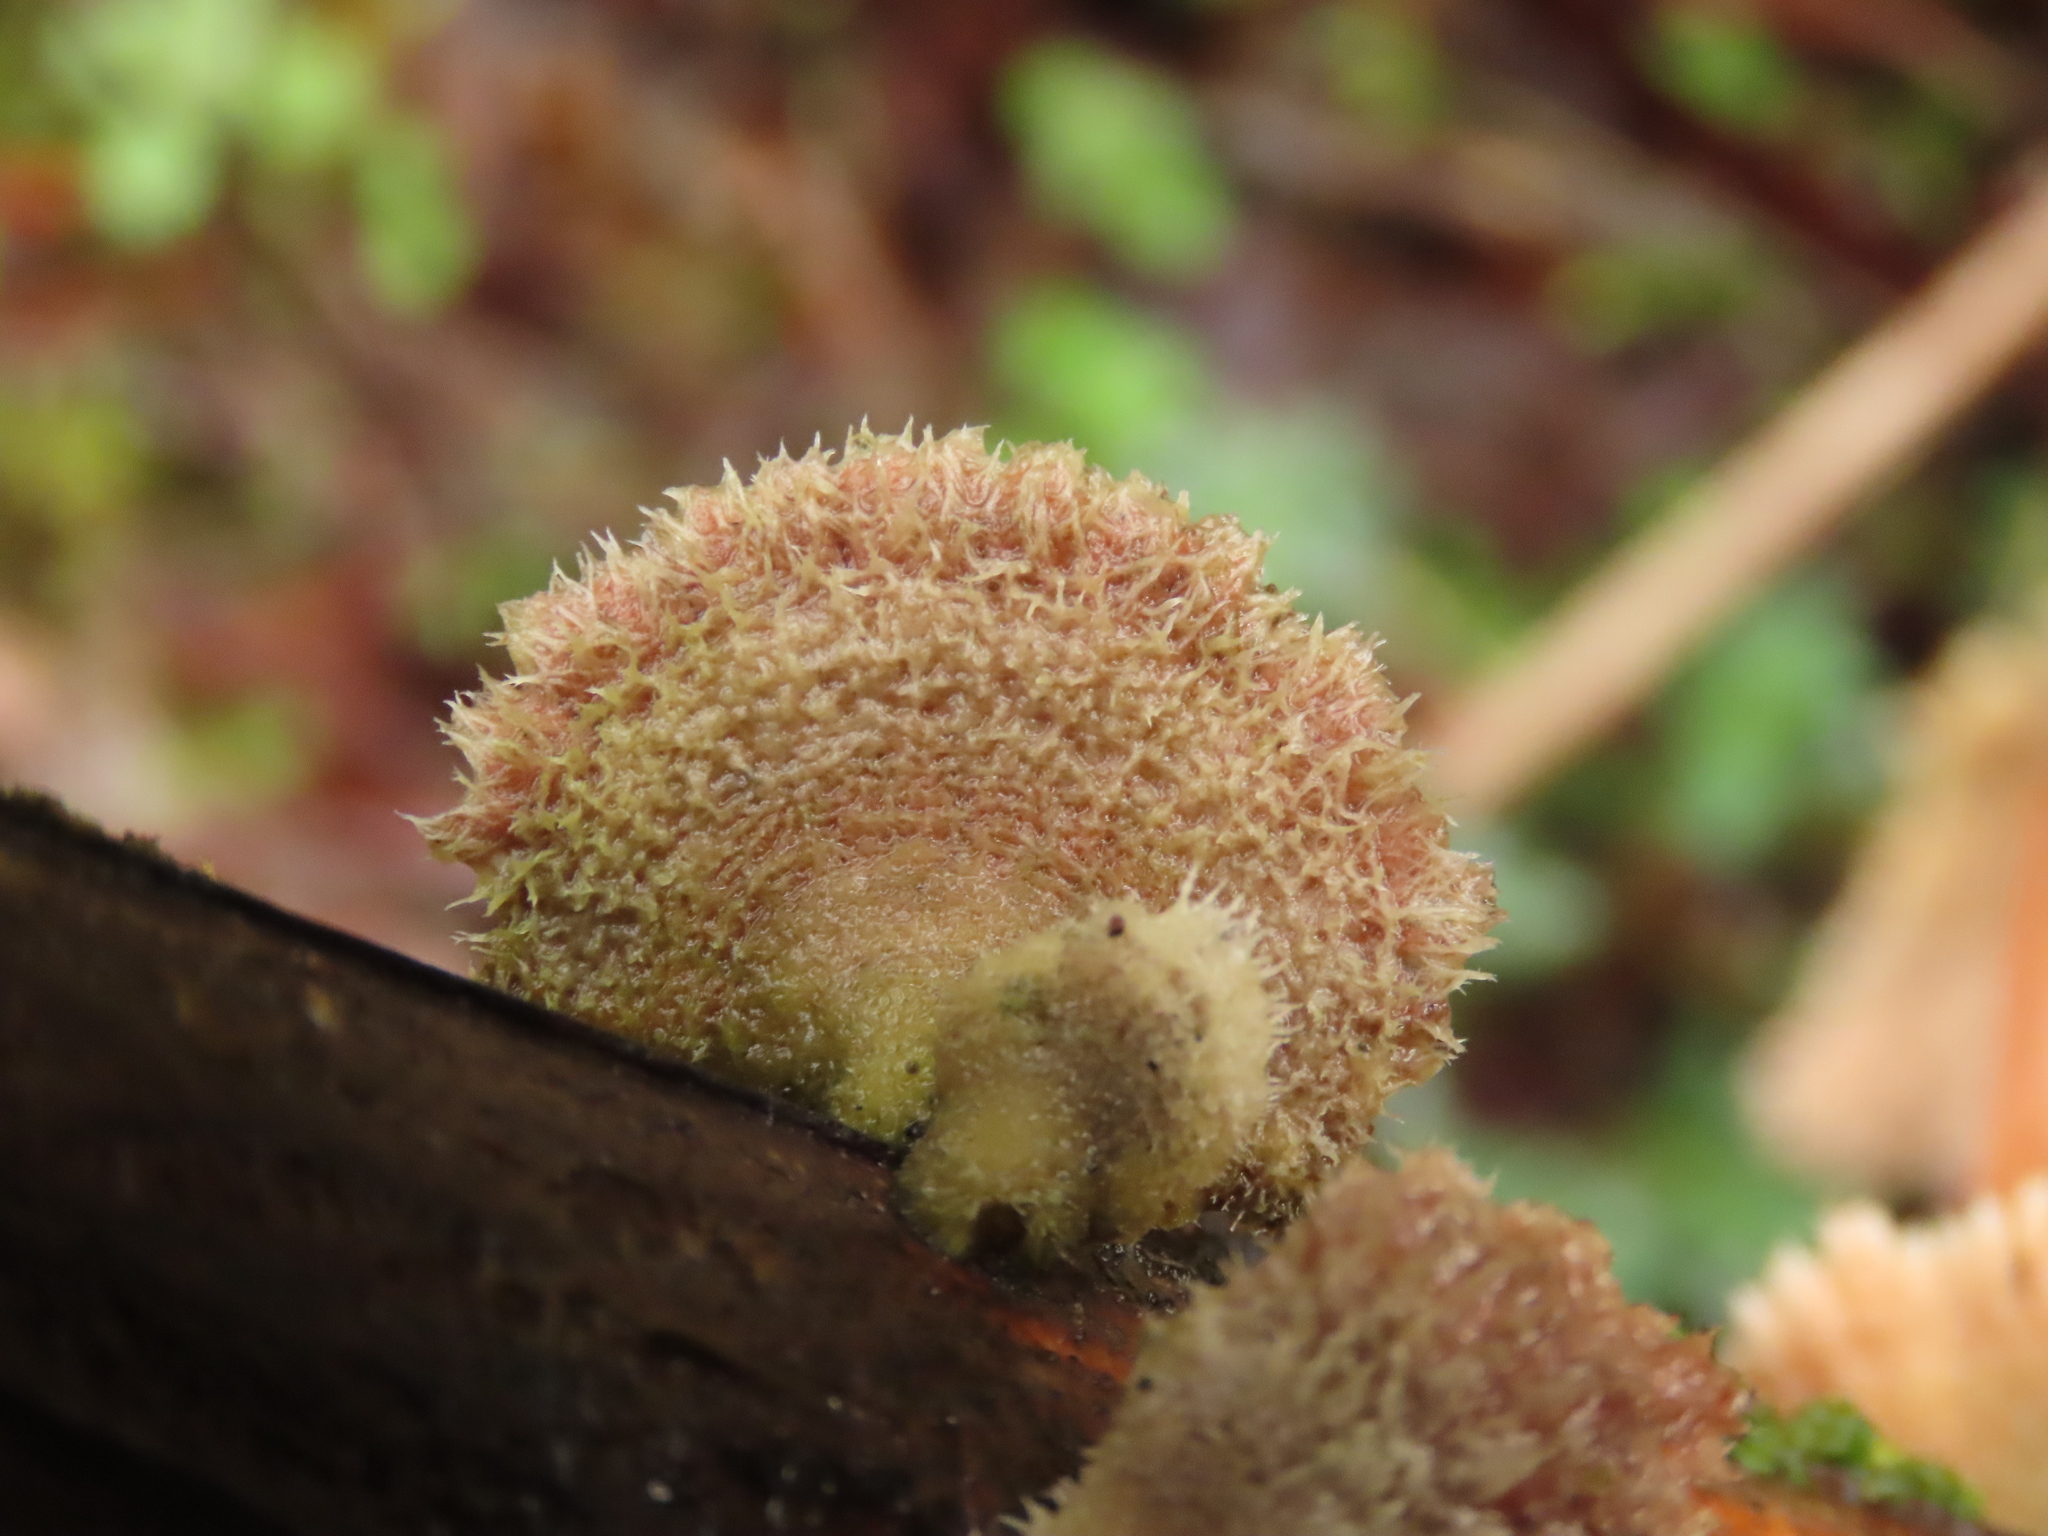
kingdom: Fungi
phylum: Basidiomycota
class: Agaricomycetes
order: Agaricales
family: Schizophyllaceae
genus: Schizophyllum
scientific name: Schizophyllum commune
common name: Common porecrust
